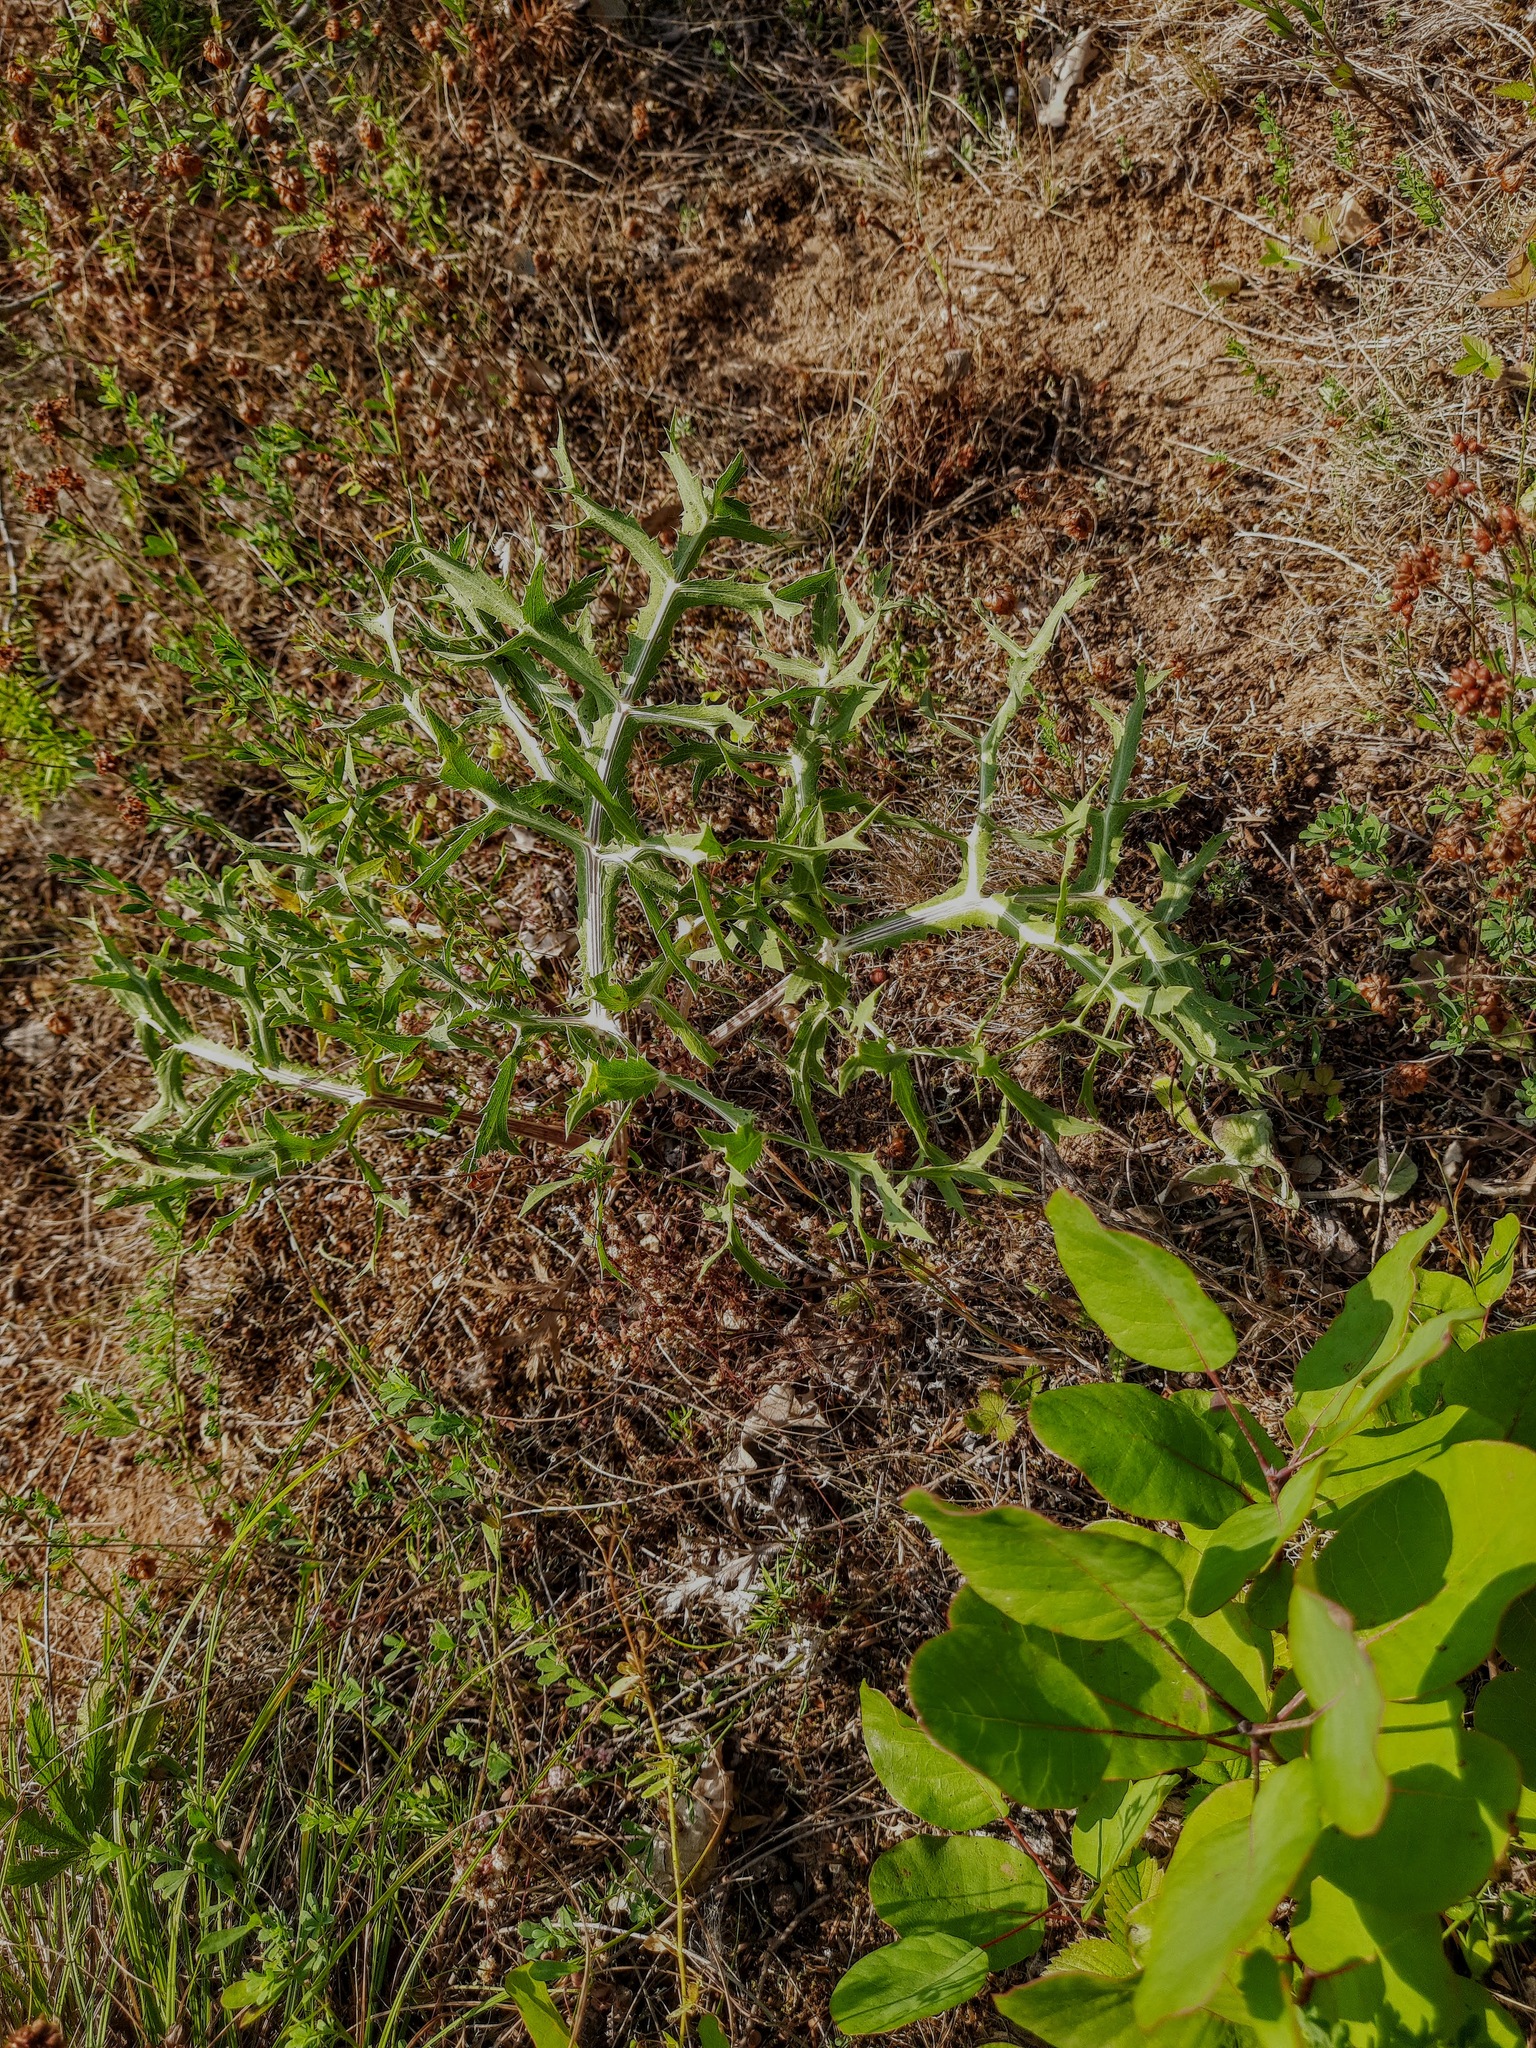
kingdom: Plantae
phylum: Tracheophyta
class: Magnoliopsida
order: Apiales
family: Apiaceae
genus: Eryngium
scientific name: Eryngium campestre
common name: Field eryngo
